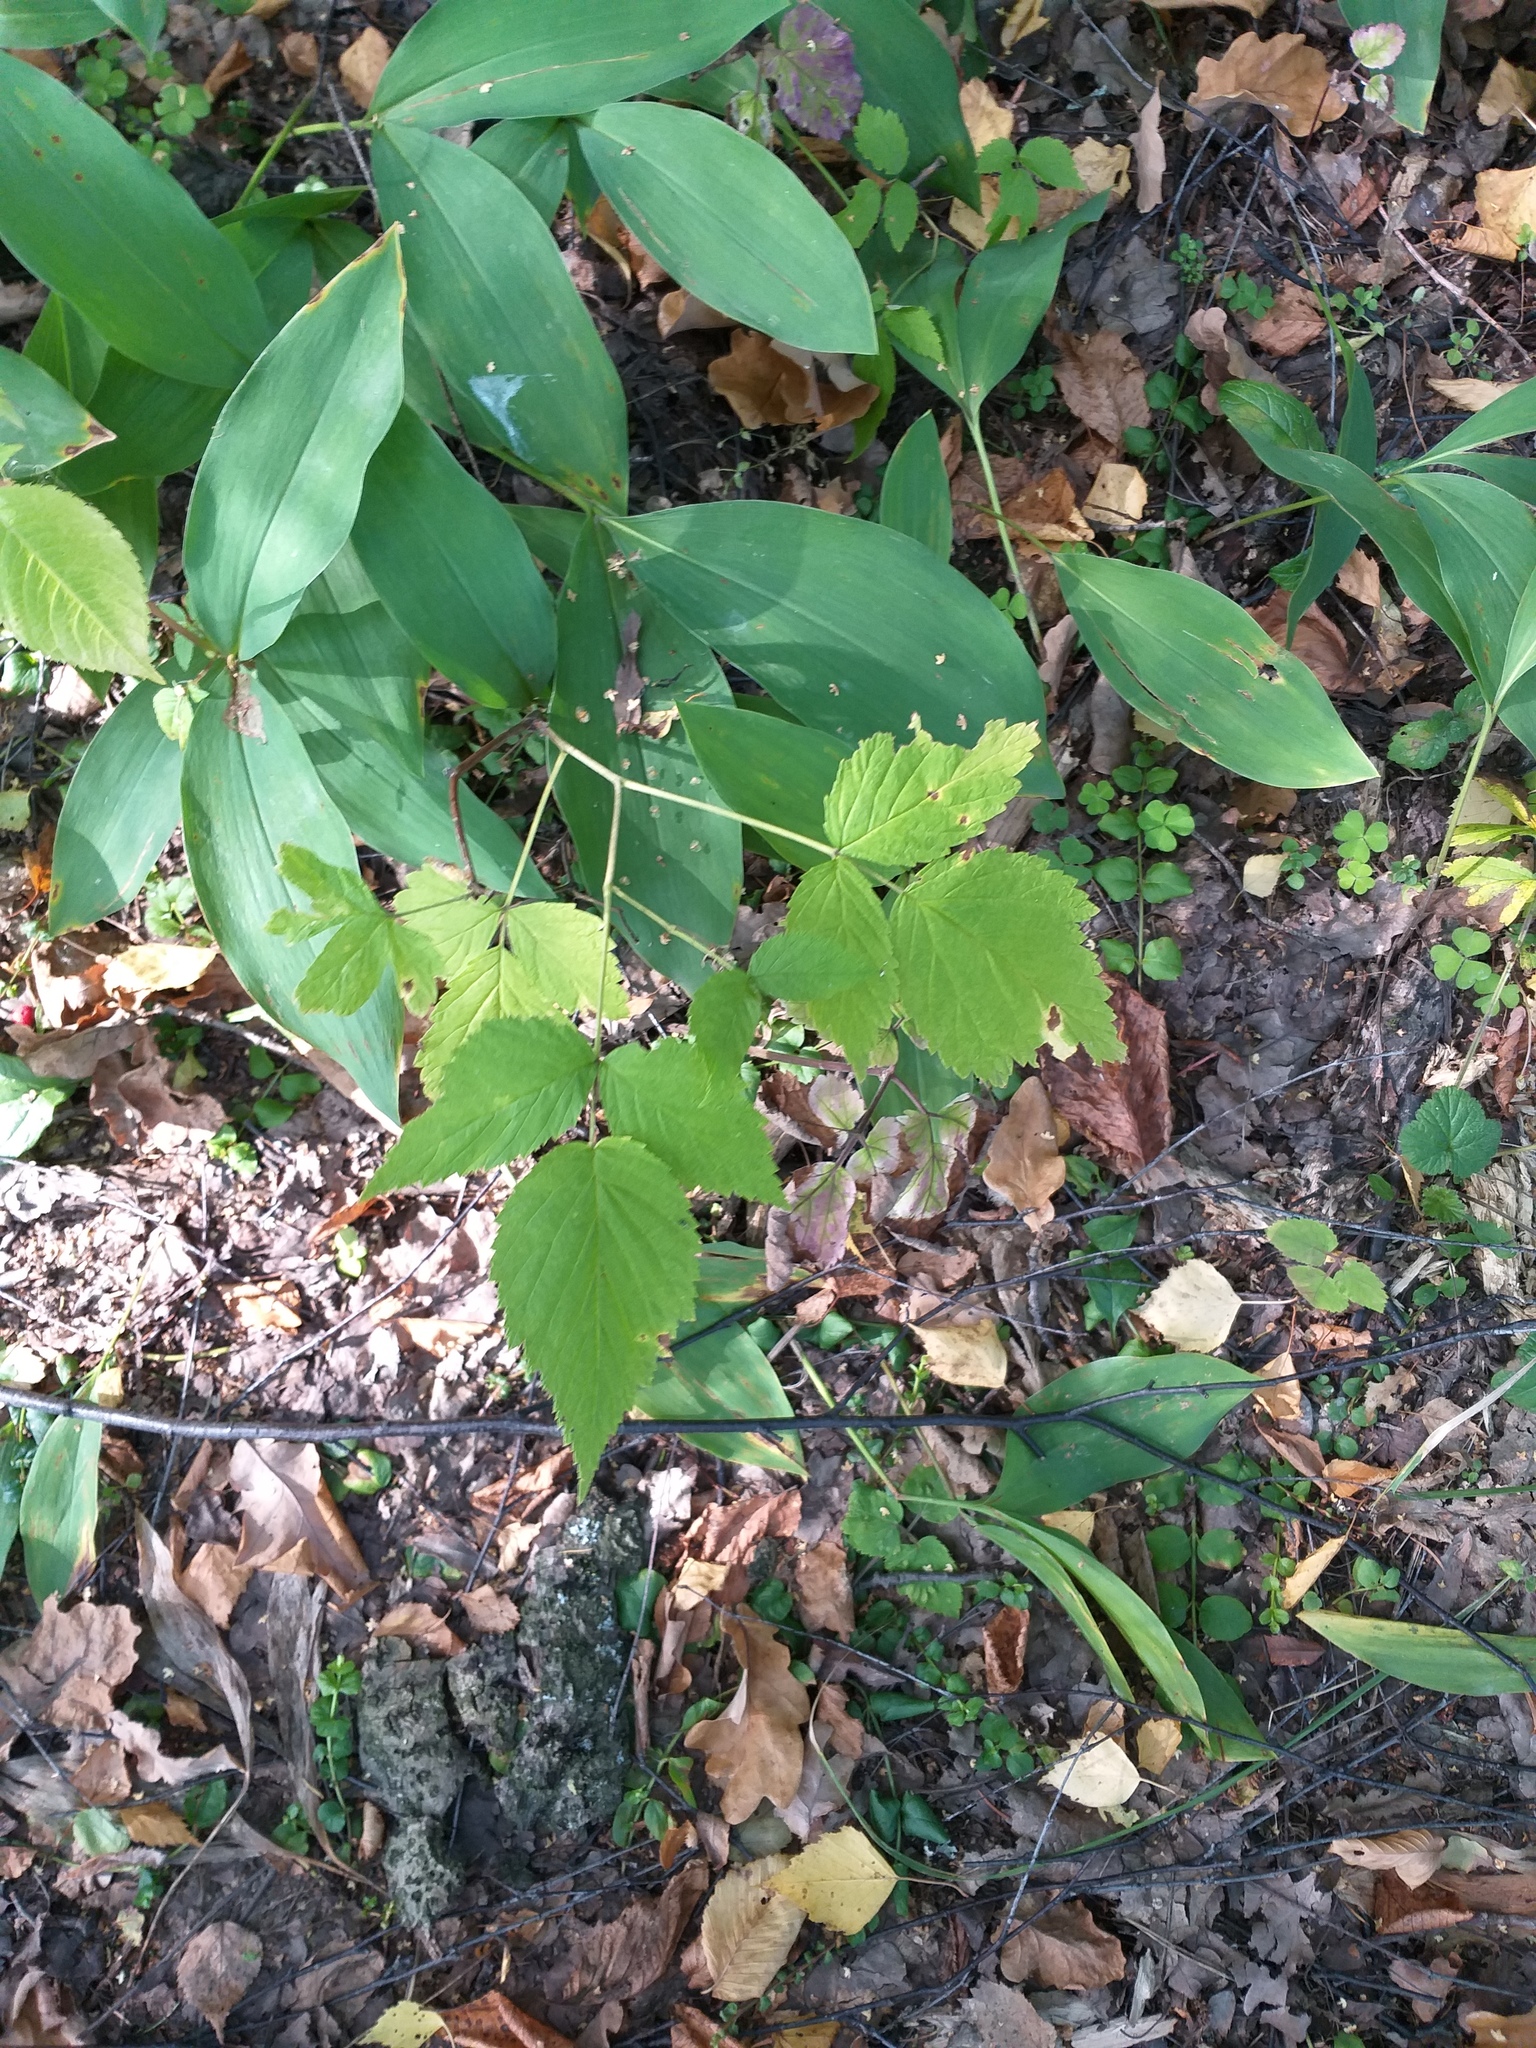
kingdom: Plantae
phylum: Tracheophyta
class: Magnoliopsida
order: Rosales
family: Rosaceae
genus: Rubus
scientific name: Rubus idaeus
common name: Raspberry
